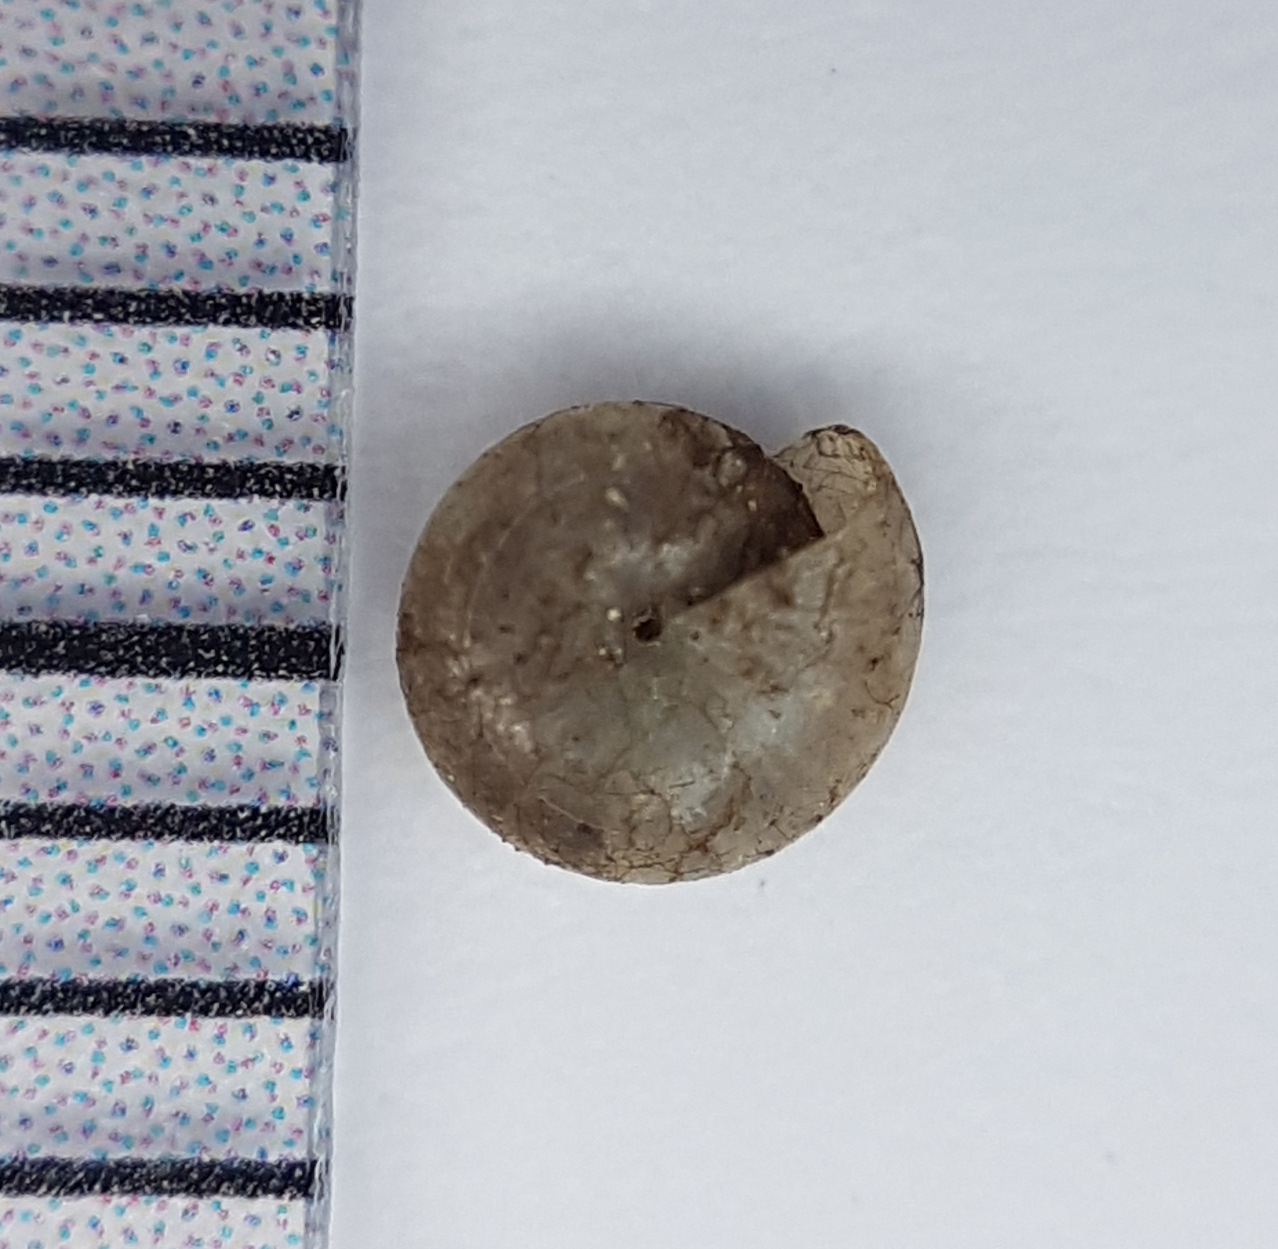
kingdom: Animalia
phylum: Mollusca
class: Gastropoda
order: Stylommatophora
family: Pristilomatidae
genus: Vitrea
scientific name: Vitrea subrimata
